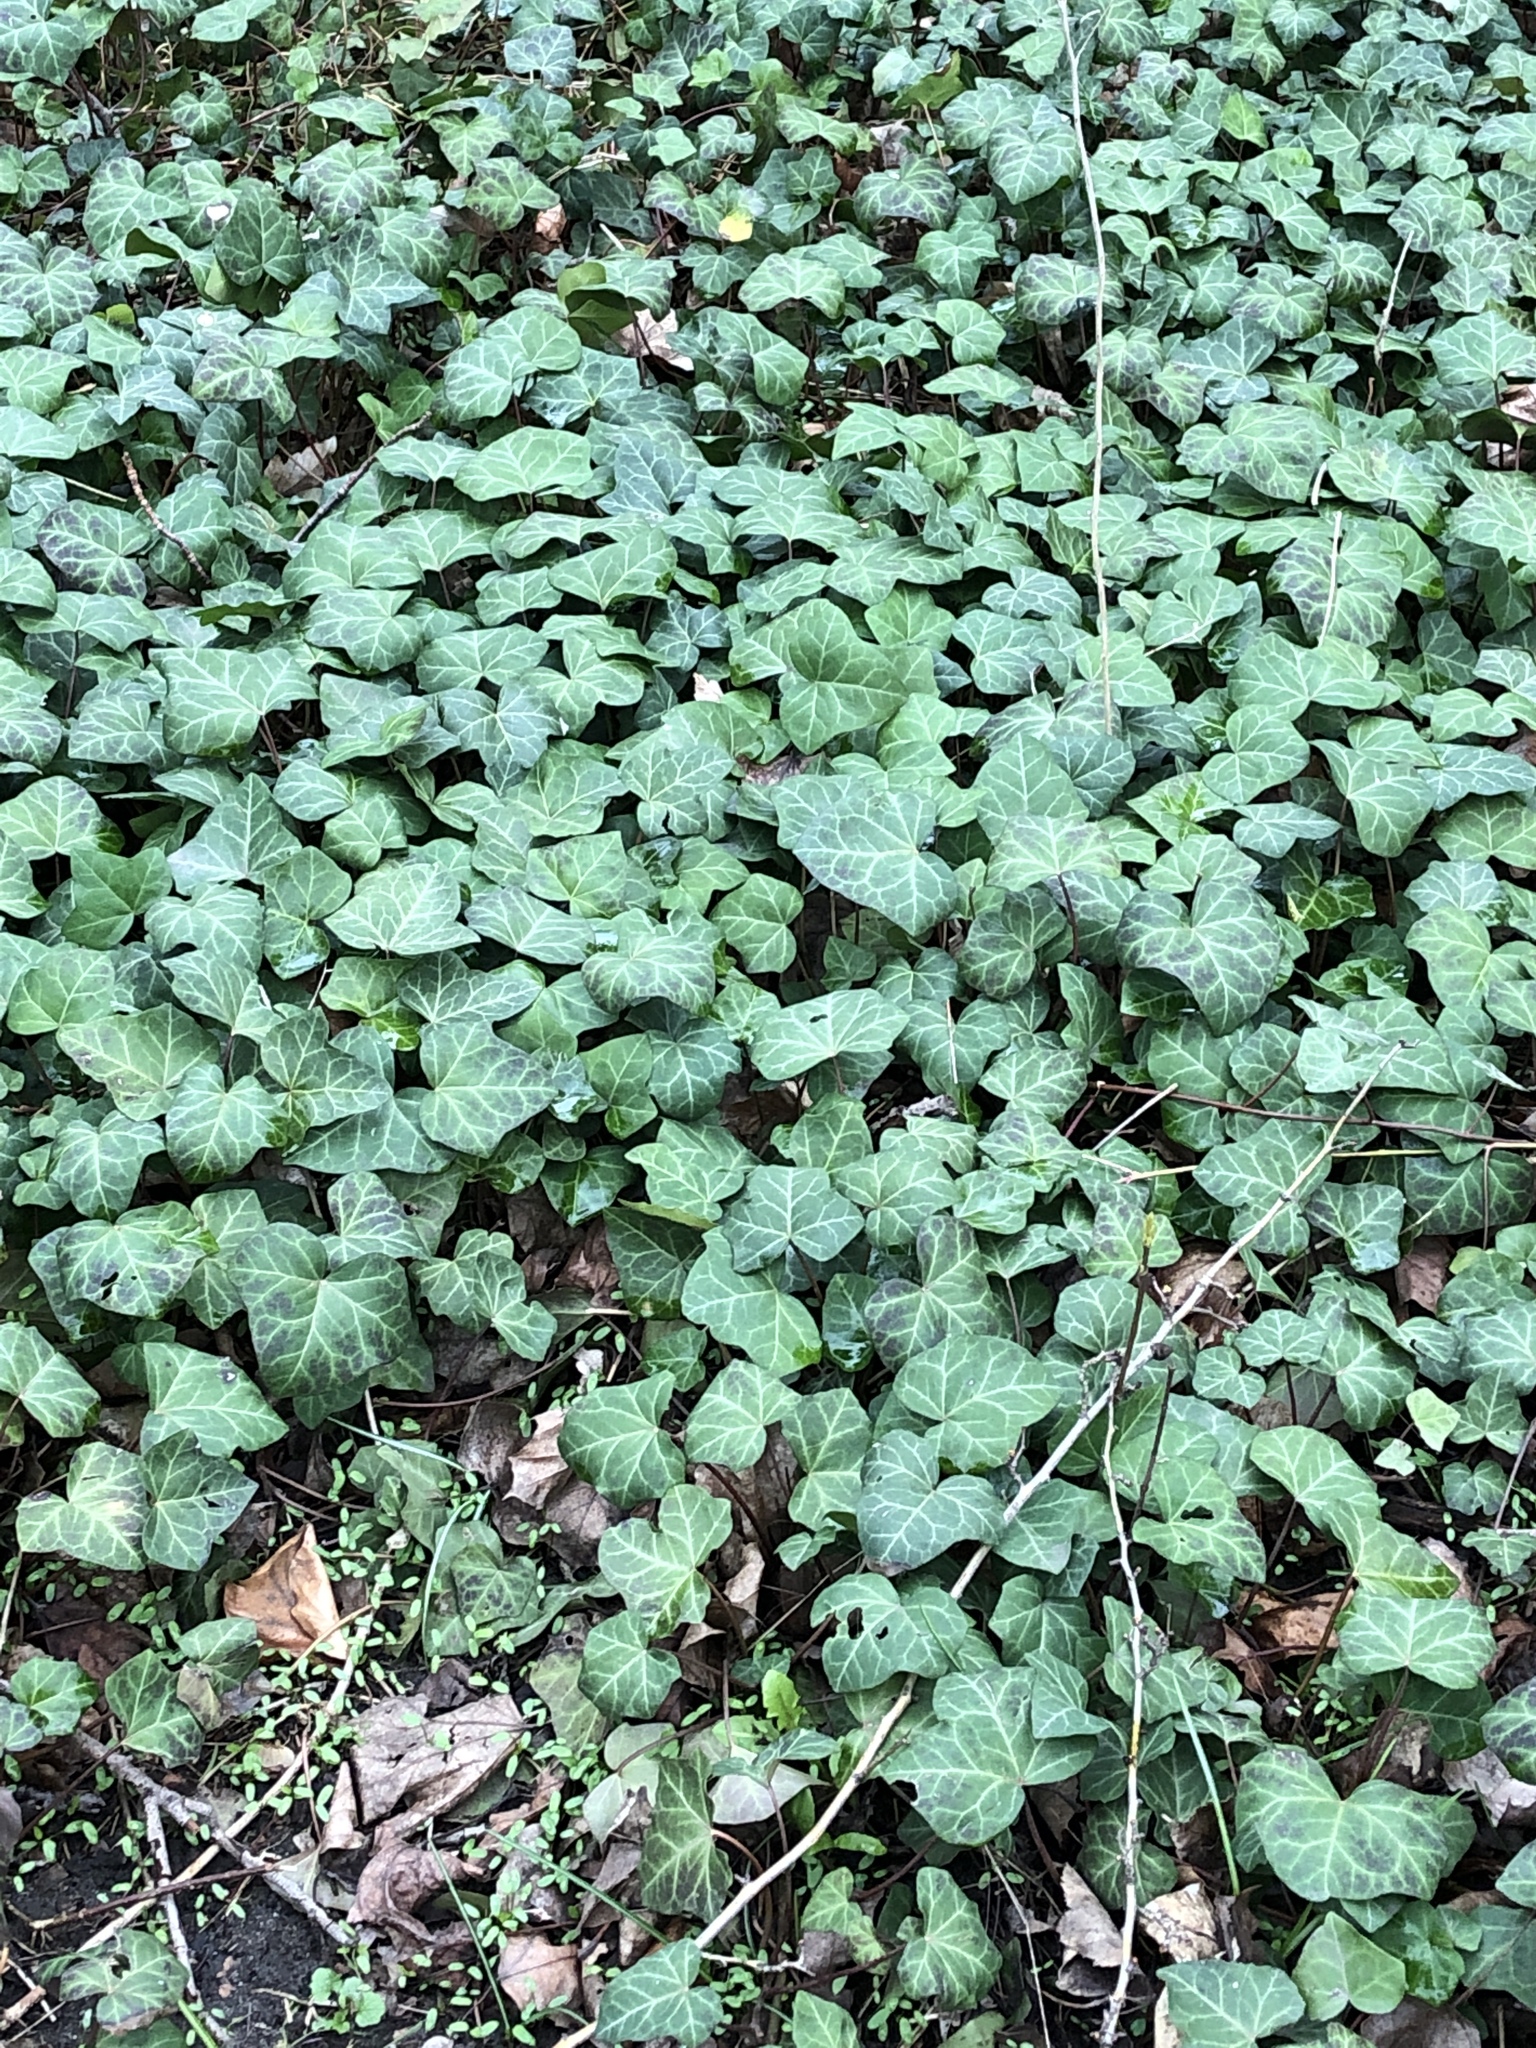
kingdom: Plantae
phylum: Tracheophyta
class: Magnoliopsida
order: Apiales
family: Araliaceae
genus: Hedera
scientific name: Hedera helix
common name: Ivy
